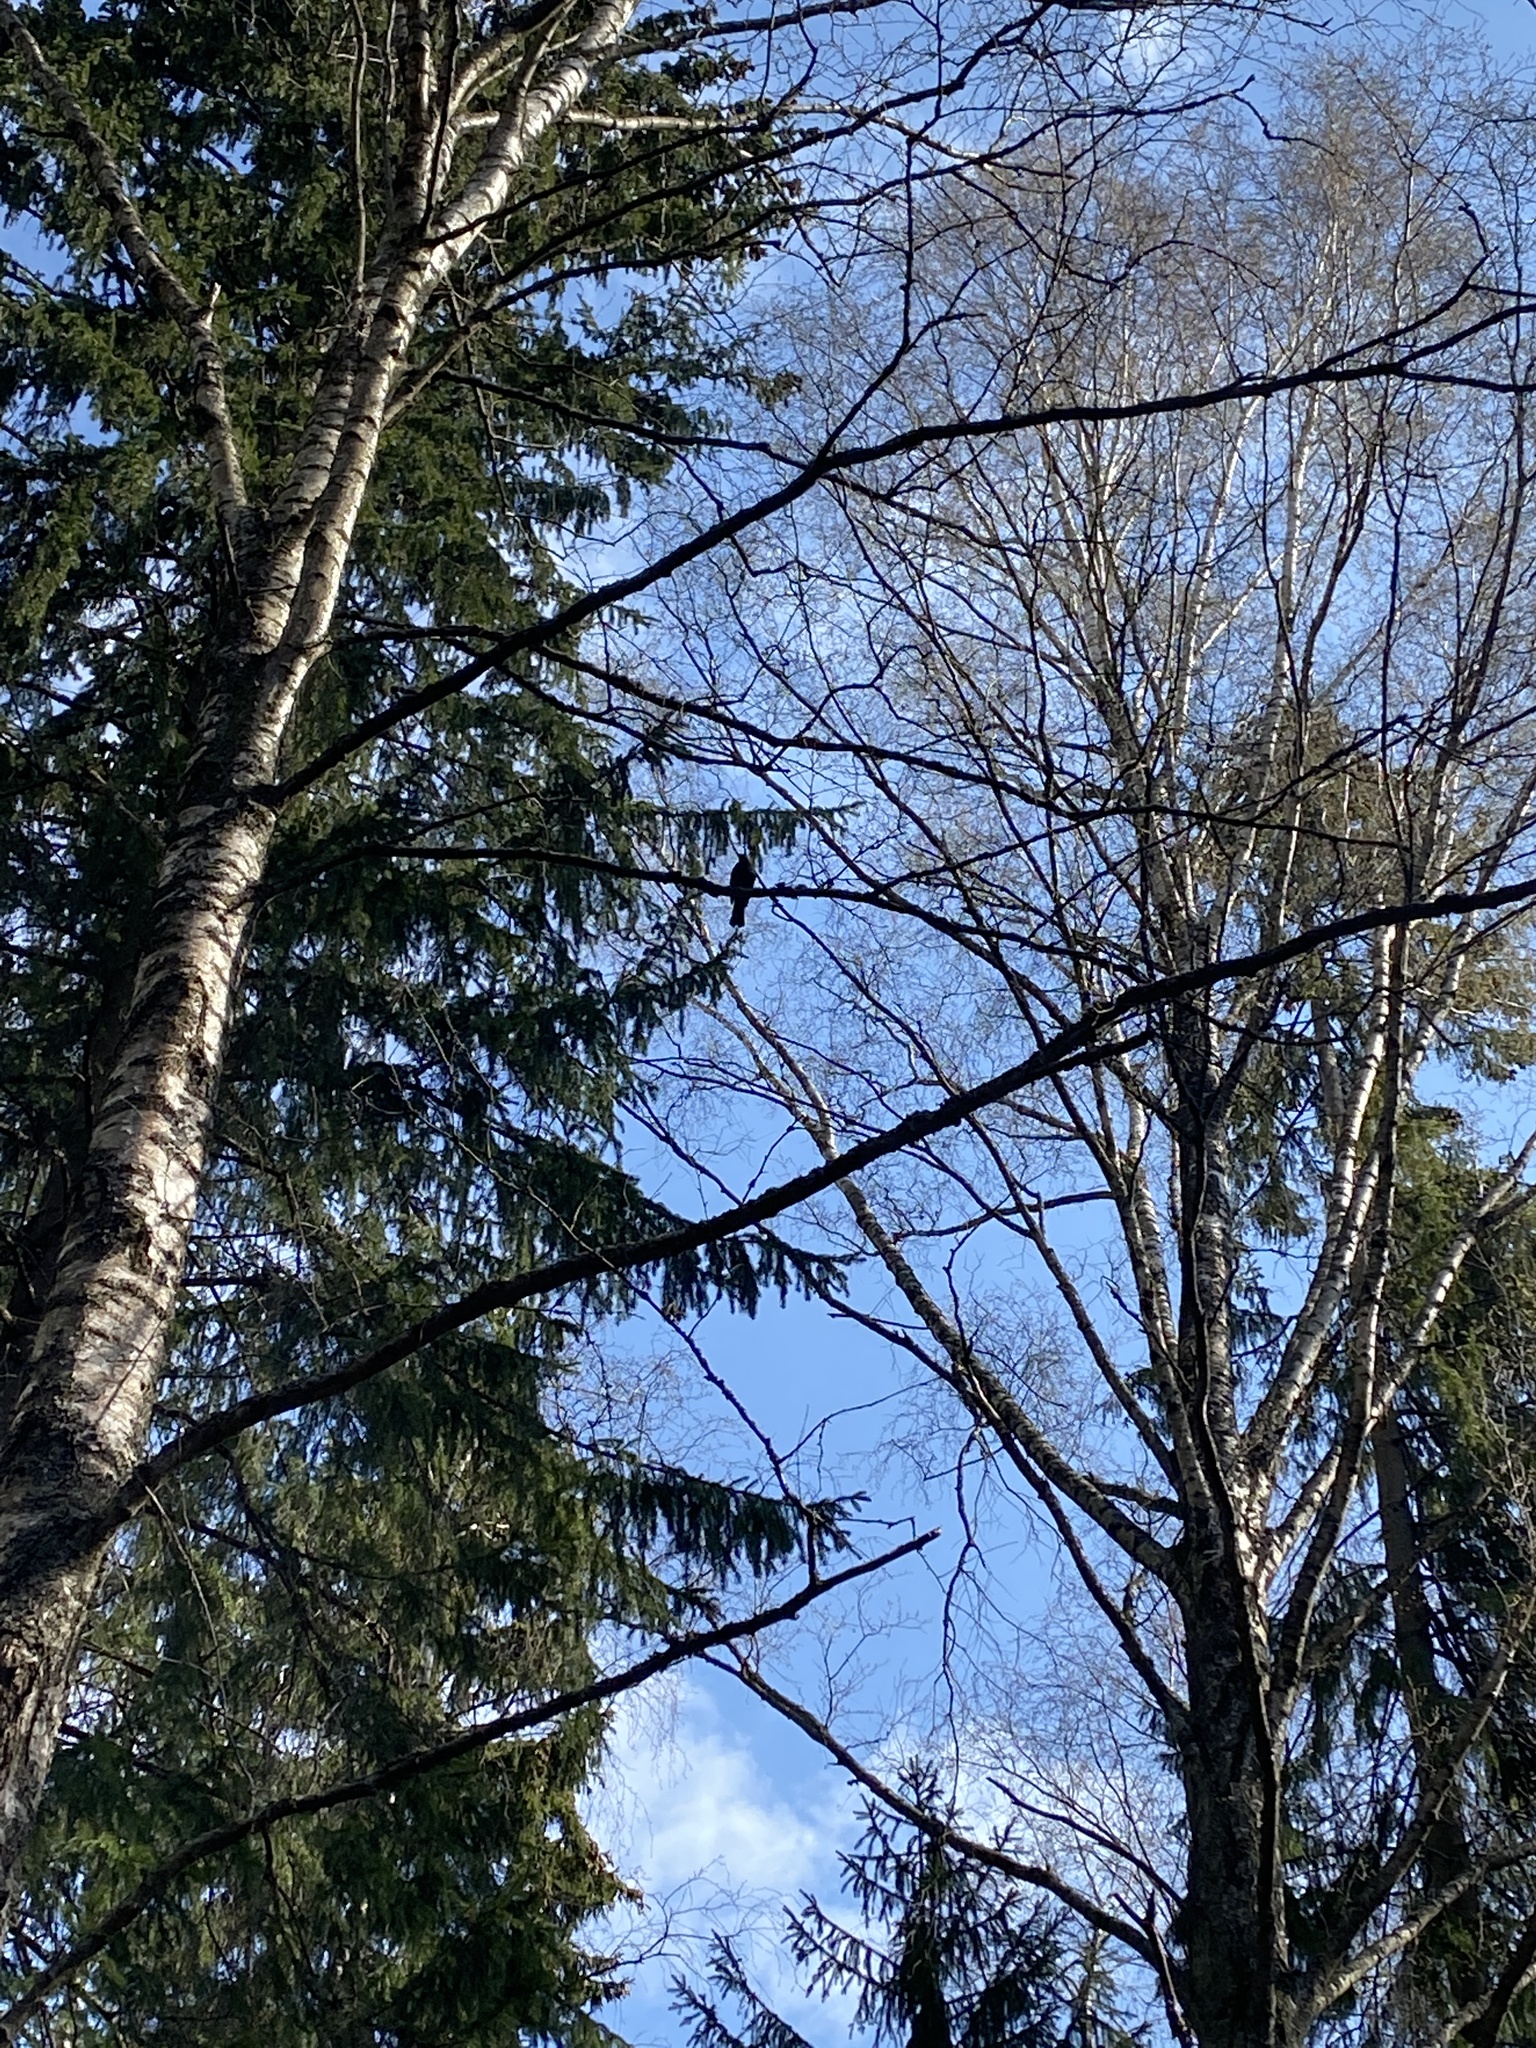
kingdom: Animalia
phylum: Chordata
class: Aves
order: Passeriformes
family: Turdidae
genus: Turdus
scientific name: Turdus merula
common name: Common blackbird
